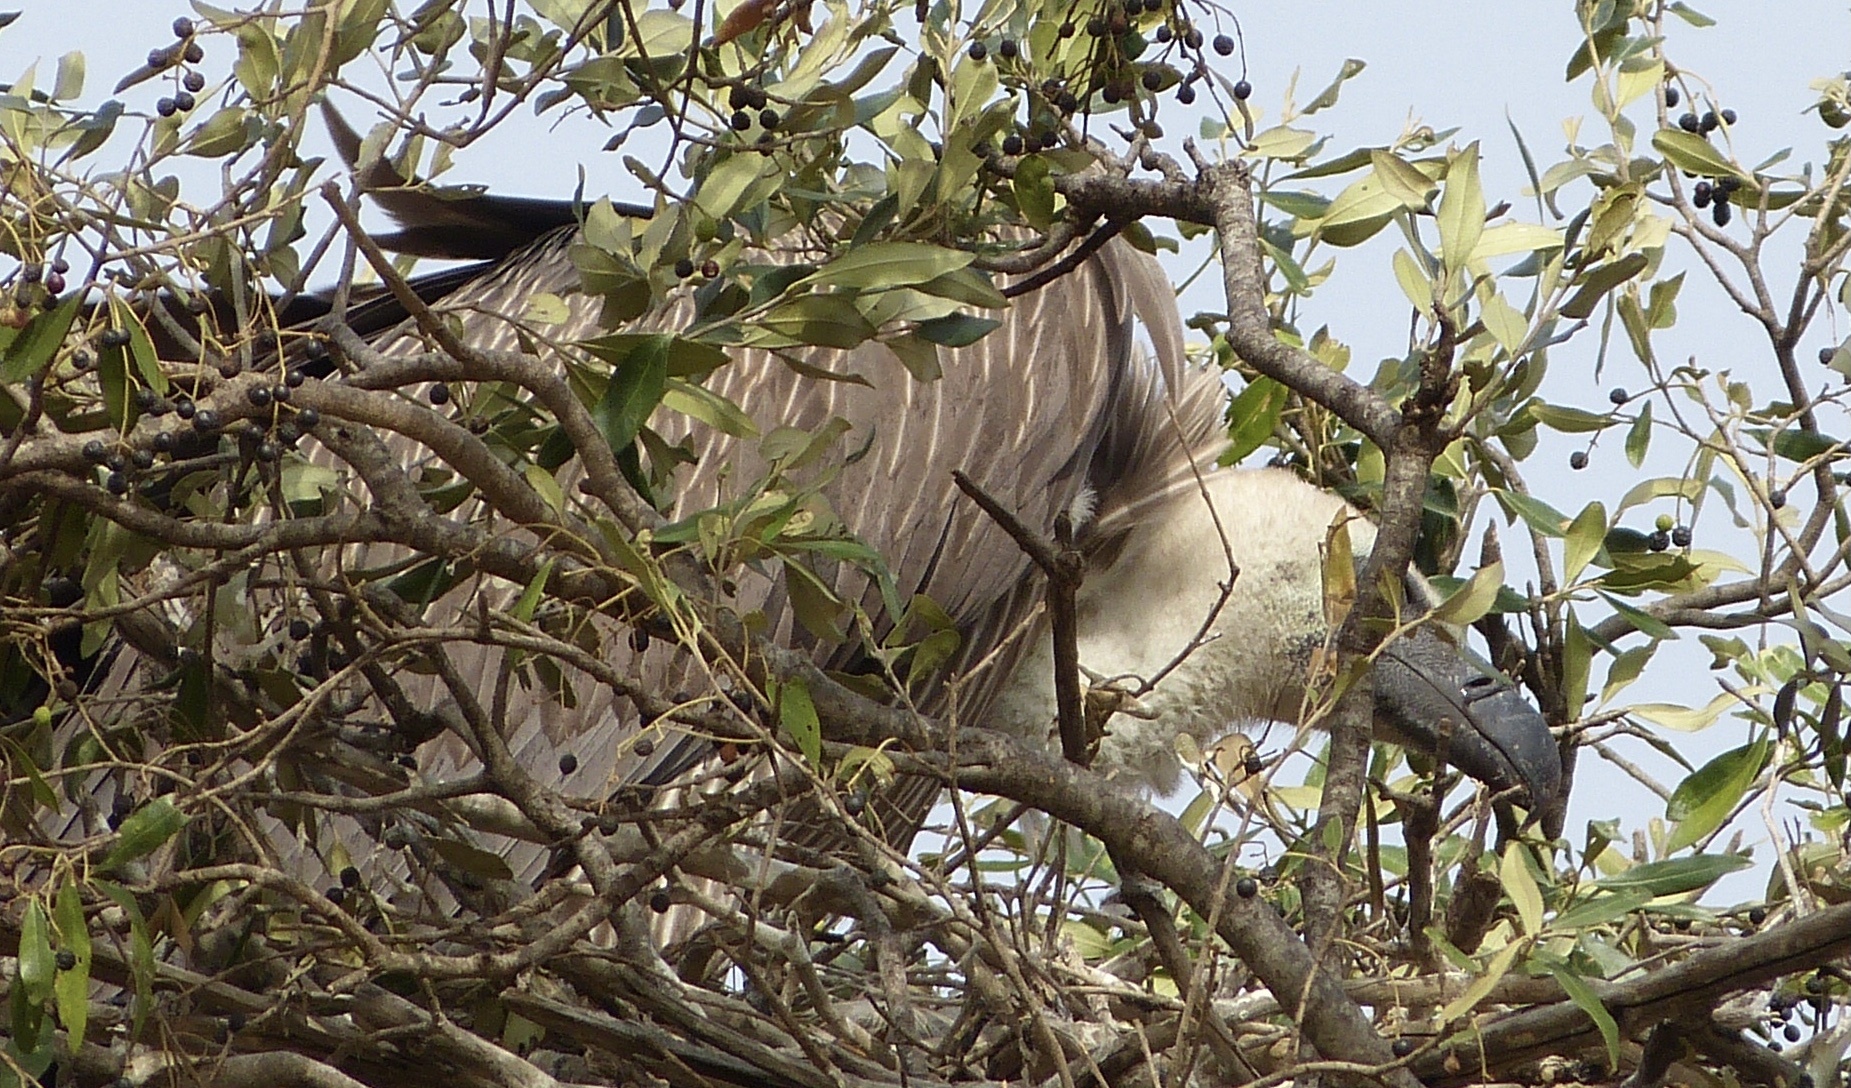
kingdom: Animalia
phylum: Chordata
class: Aves
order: Accipitriformes
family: Accipitridae
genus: Gyps
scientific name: Gyps africanus
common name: White-backed vulture
